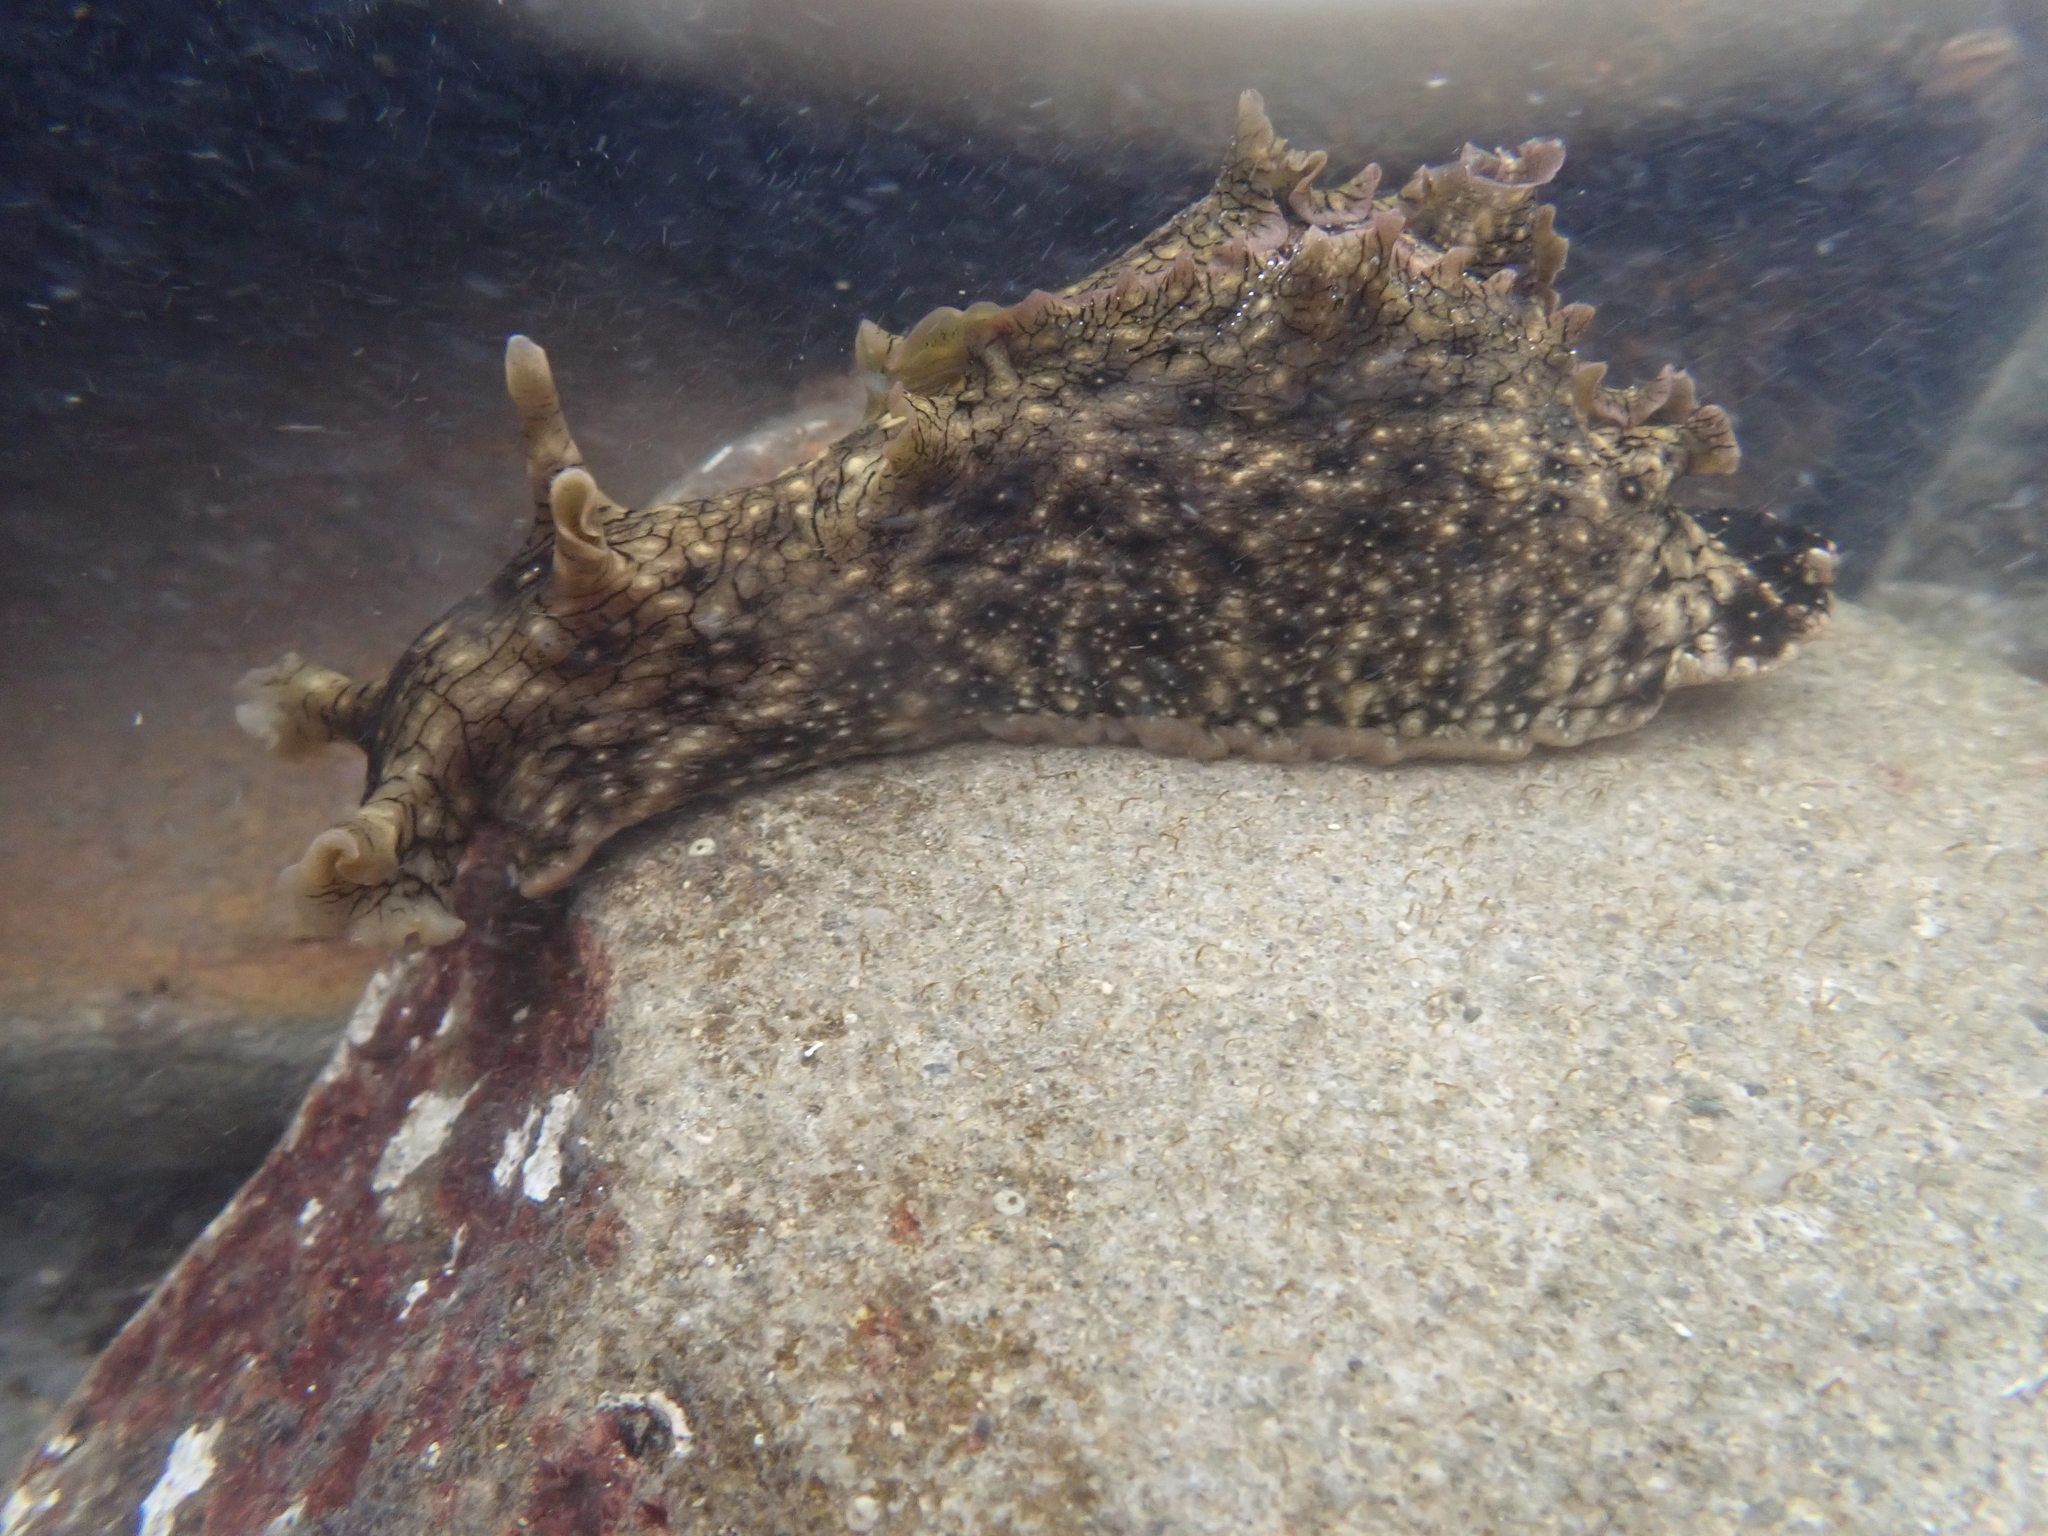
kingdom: Animalia
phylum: Mollusca
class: Gastropoda
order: Aplysiida
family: Aplysiidae
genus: Aplysia
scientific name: Aplysia argus
